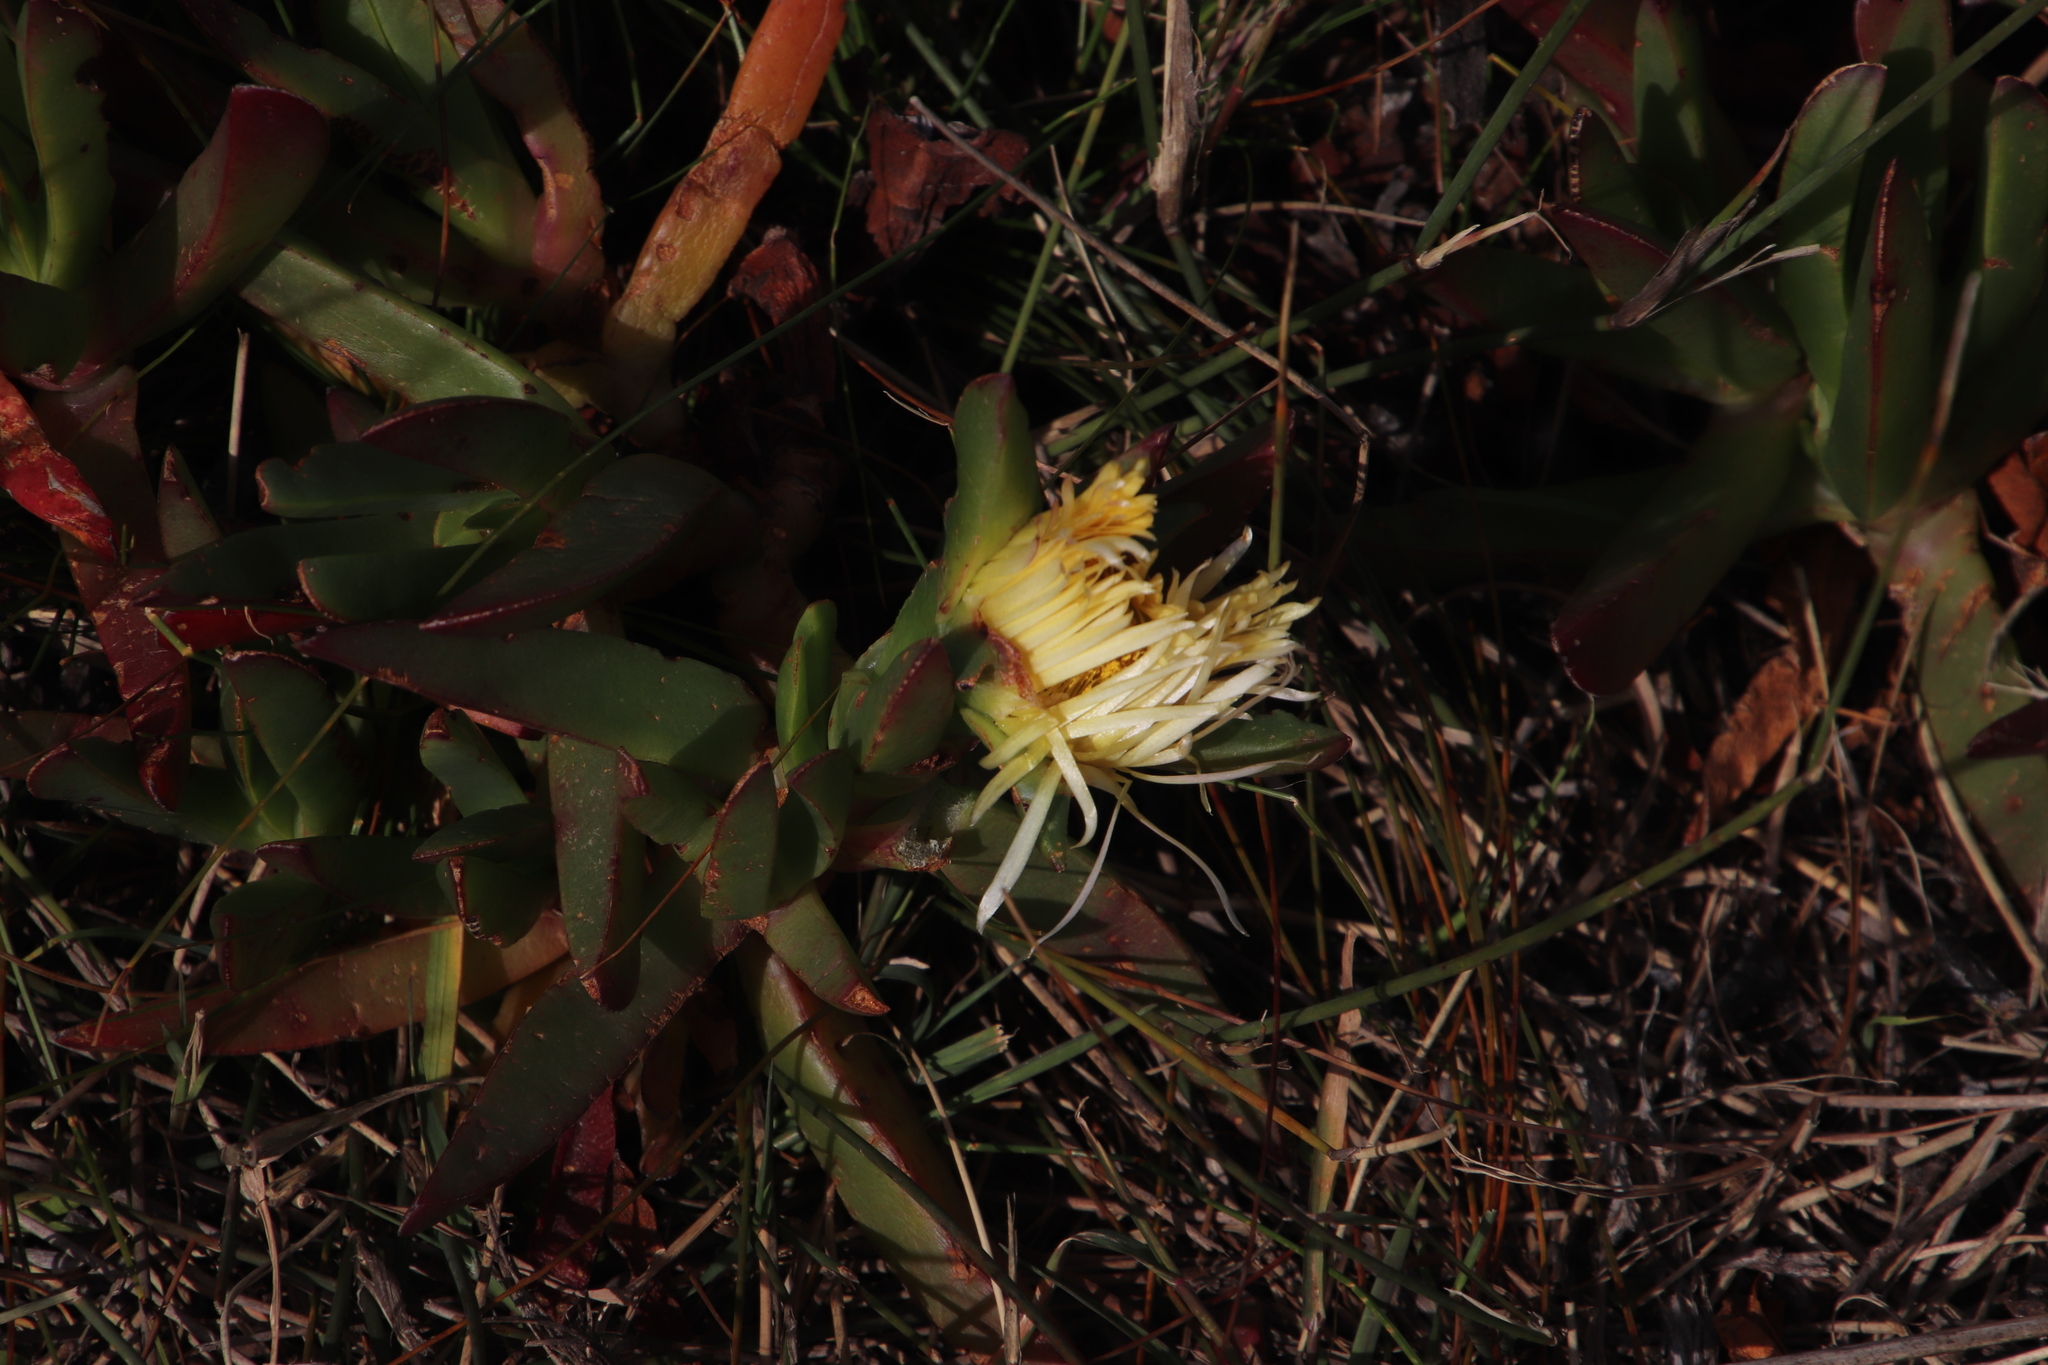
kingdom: Plantae
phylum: Tracheophyta
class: Magnoliopsida
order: Caryophyllales
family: Aizoaceae
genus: Carpobrotus
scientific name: Carpobrotus edulis
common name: Hottentot-fig
